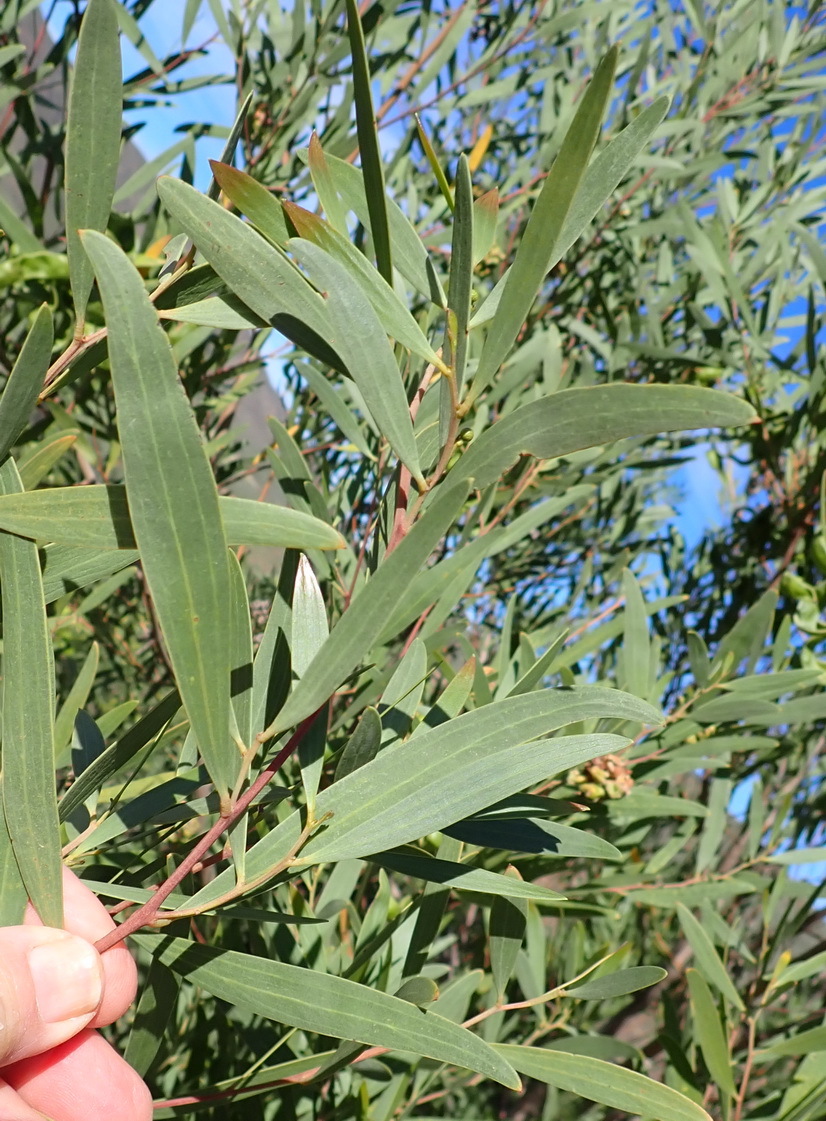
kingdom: Plantae
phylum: Tracheophyta
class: Magnoliopsida
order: Fabales
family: Fabaceae
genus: Acacia
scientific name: Acacia cyclops
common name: Coastal wattle
